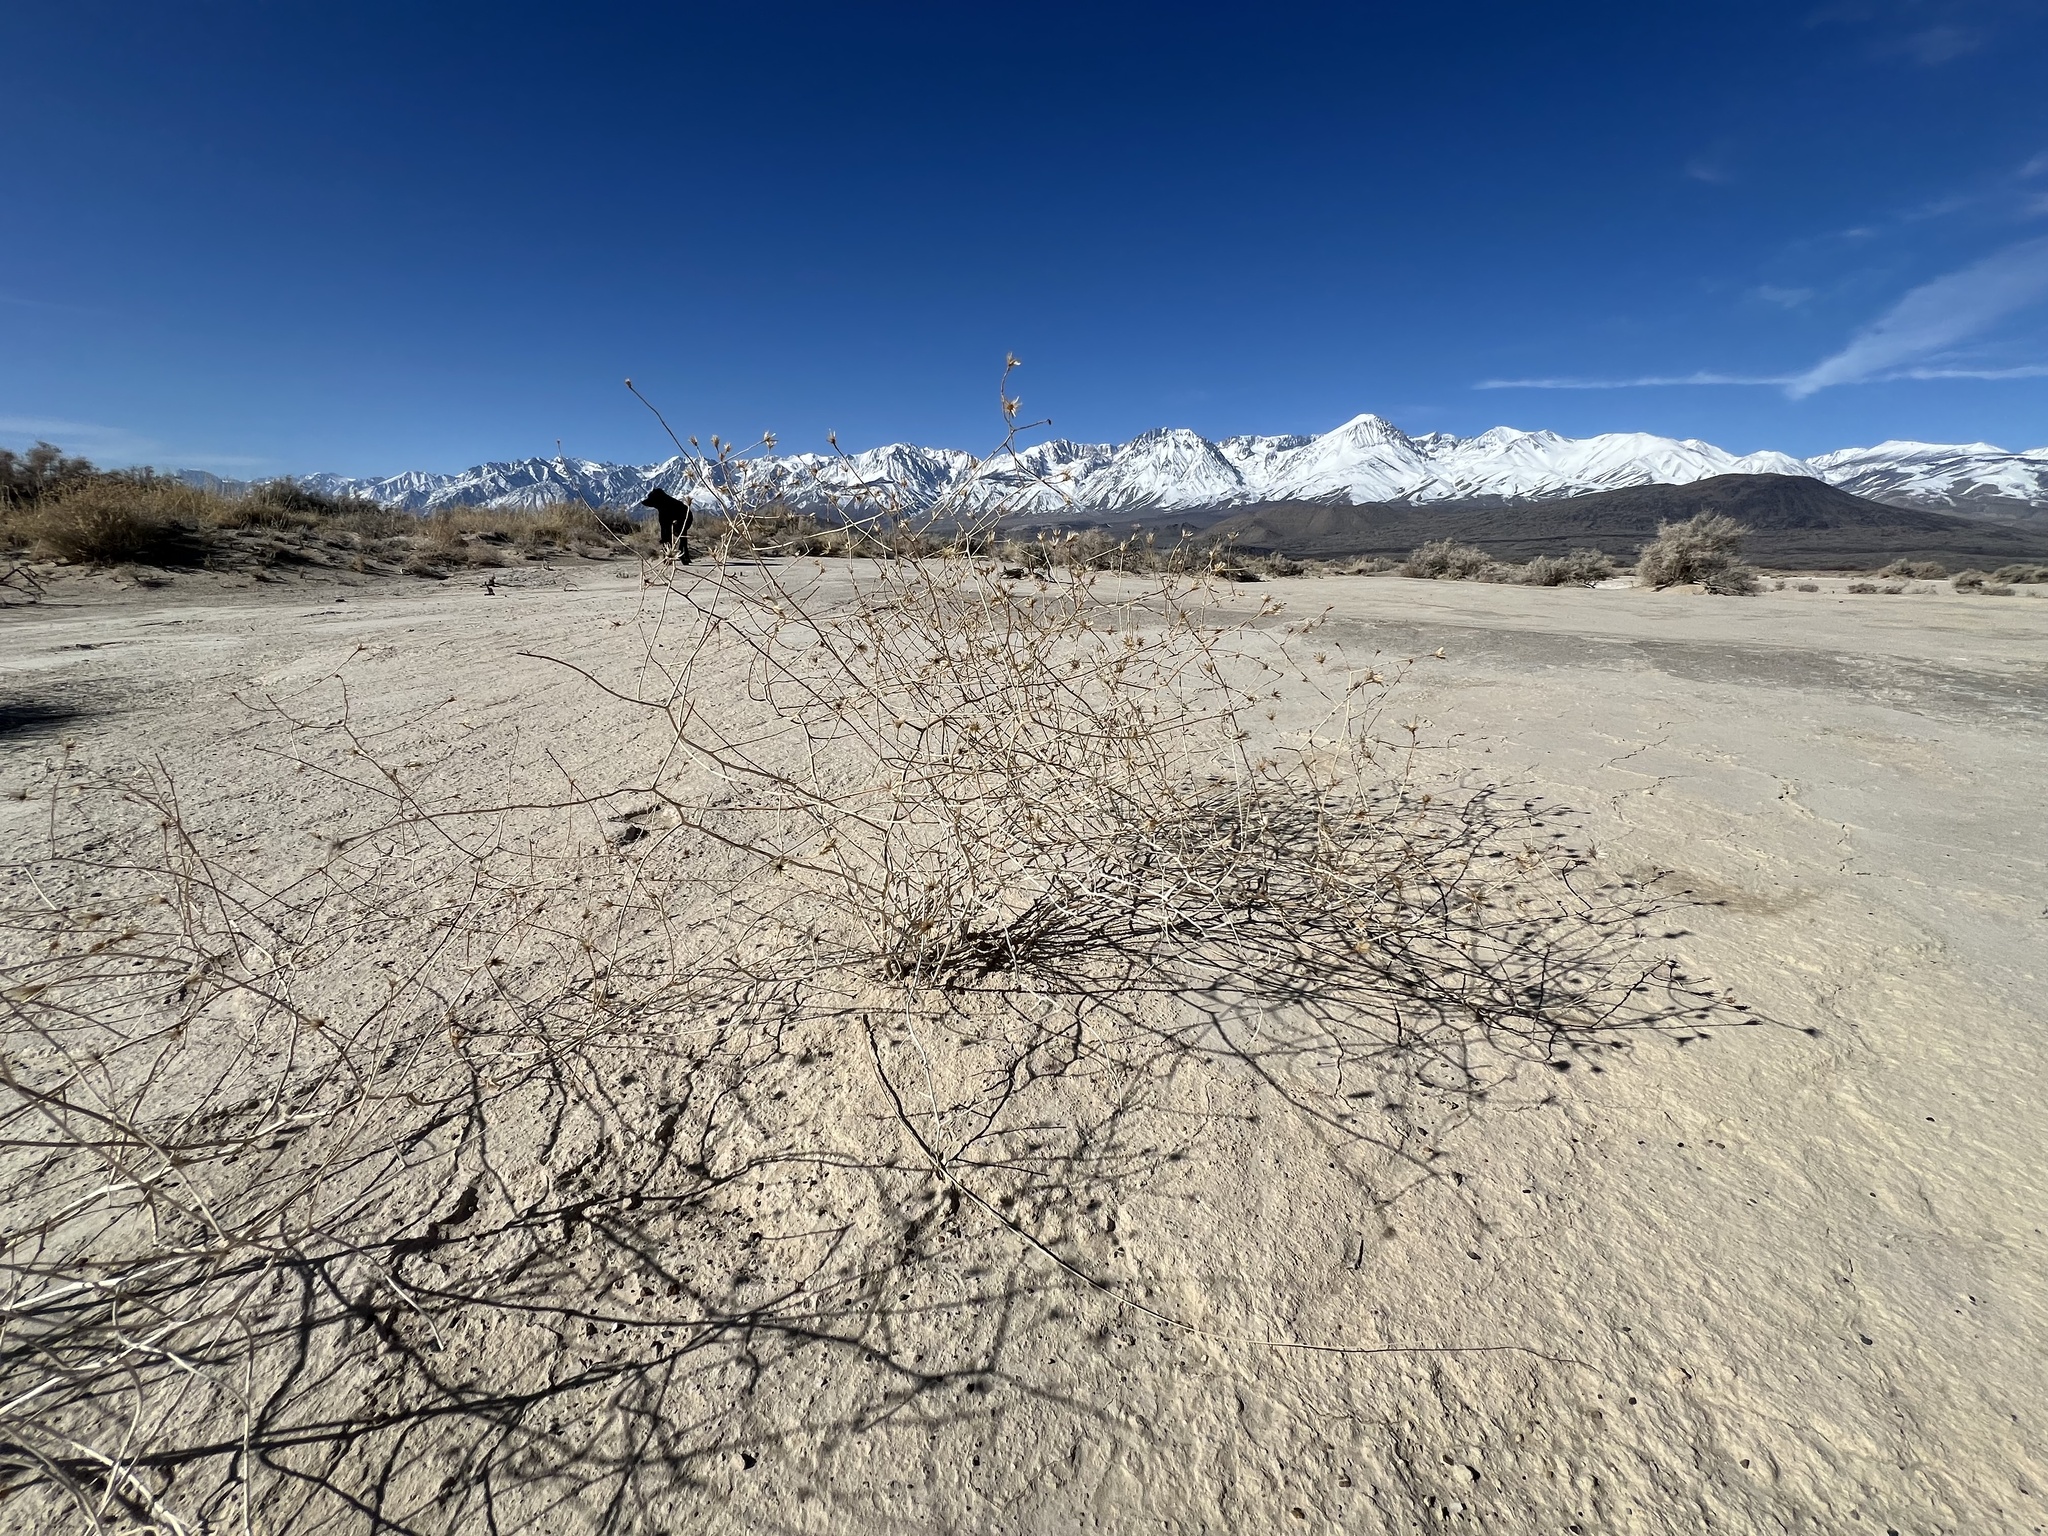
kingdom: Plantae
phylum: Tracheophyta
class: Magnoliopsida
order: Asterales
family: Asteraceae
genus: Leucosyris
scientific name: Leucosyris carnosa
